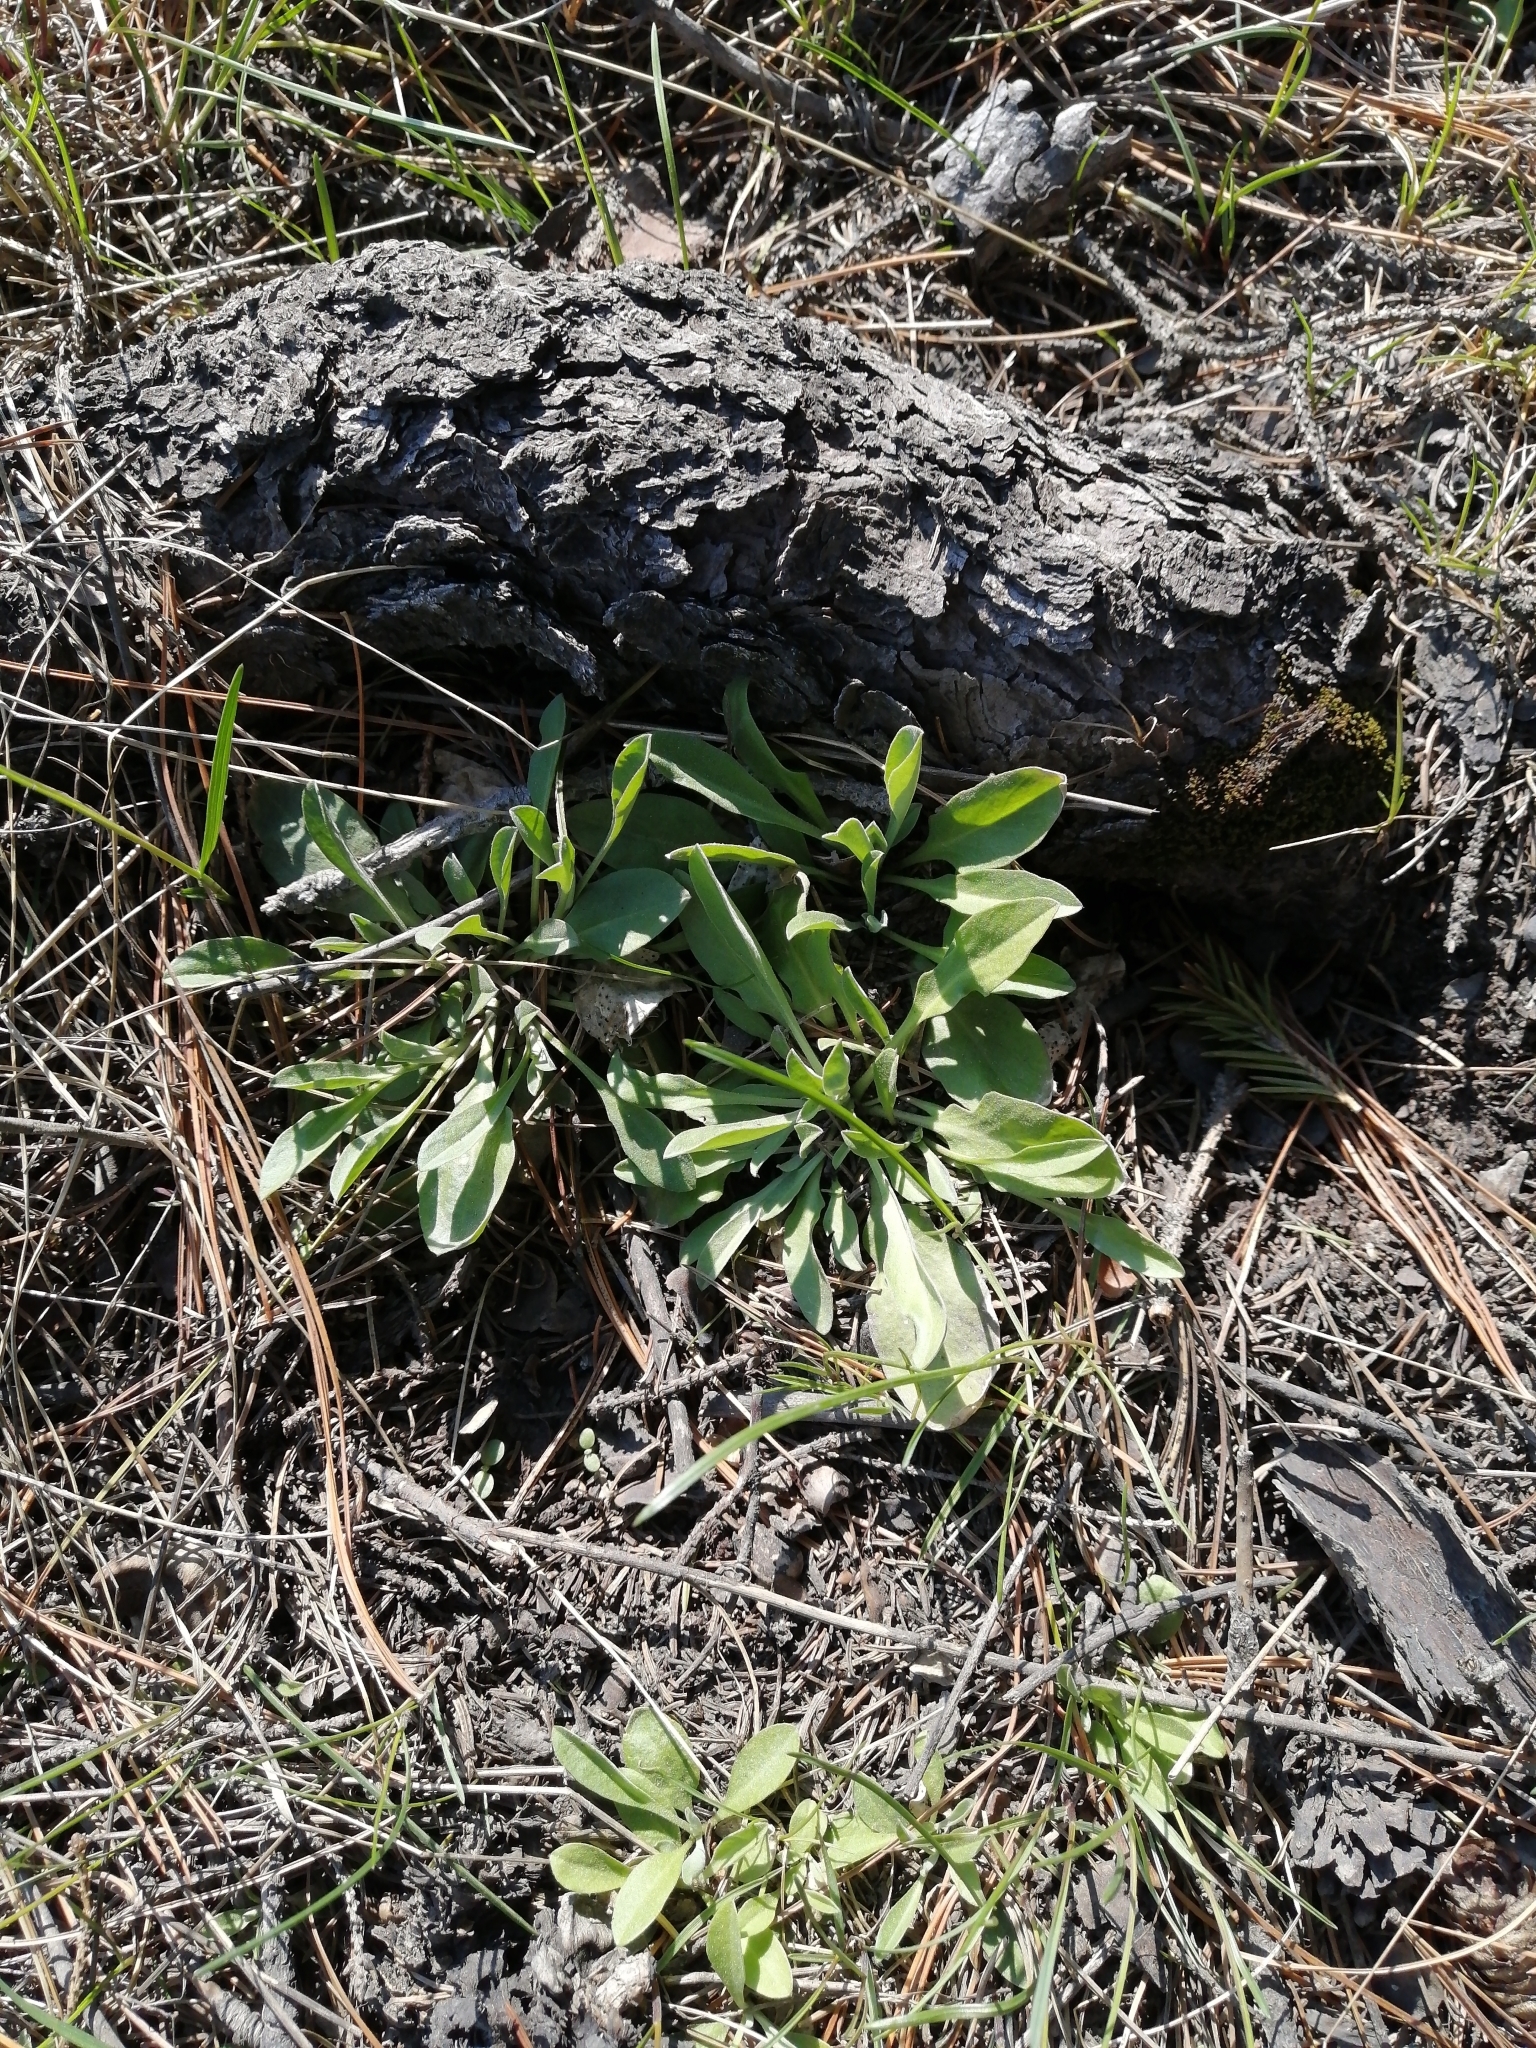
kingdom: Plantae
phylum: Tracheophyta
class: Magnoliopsida
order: Brassicales
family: Brassicaceae
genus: Berteroa
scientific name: Berteroa incana
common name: Hoary alison
